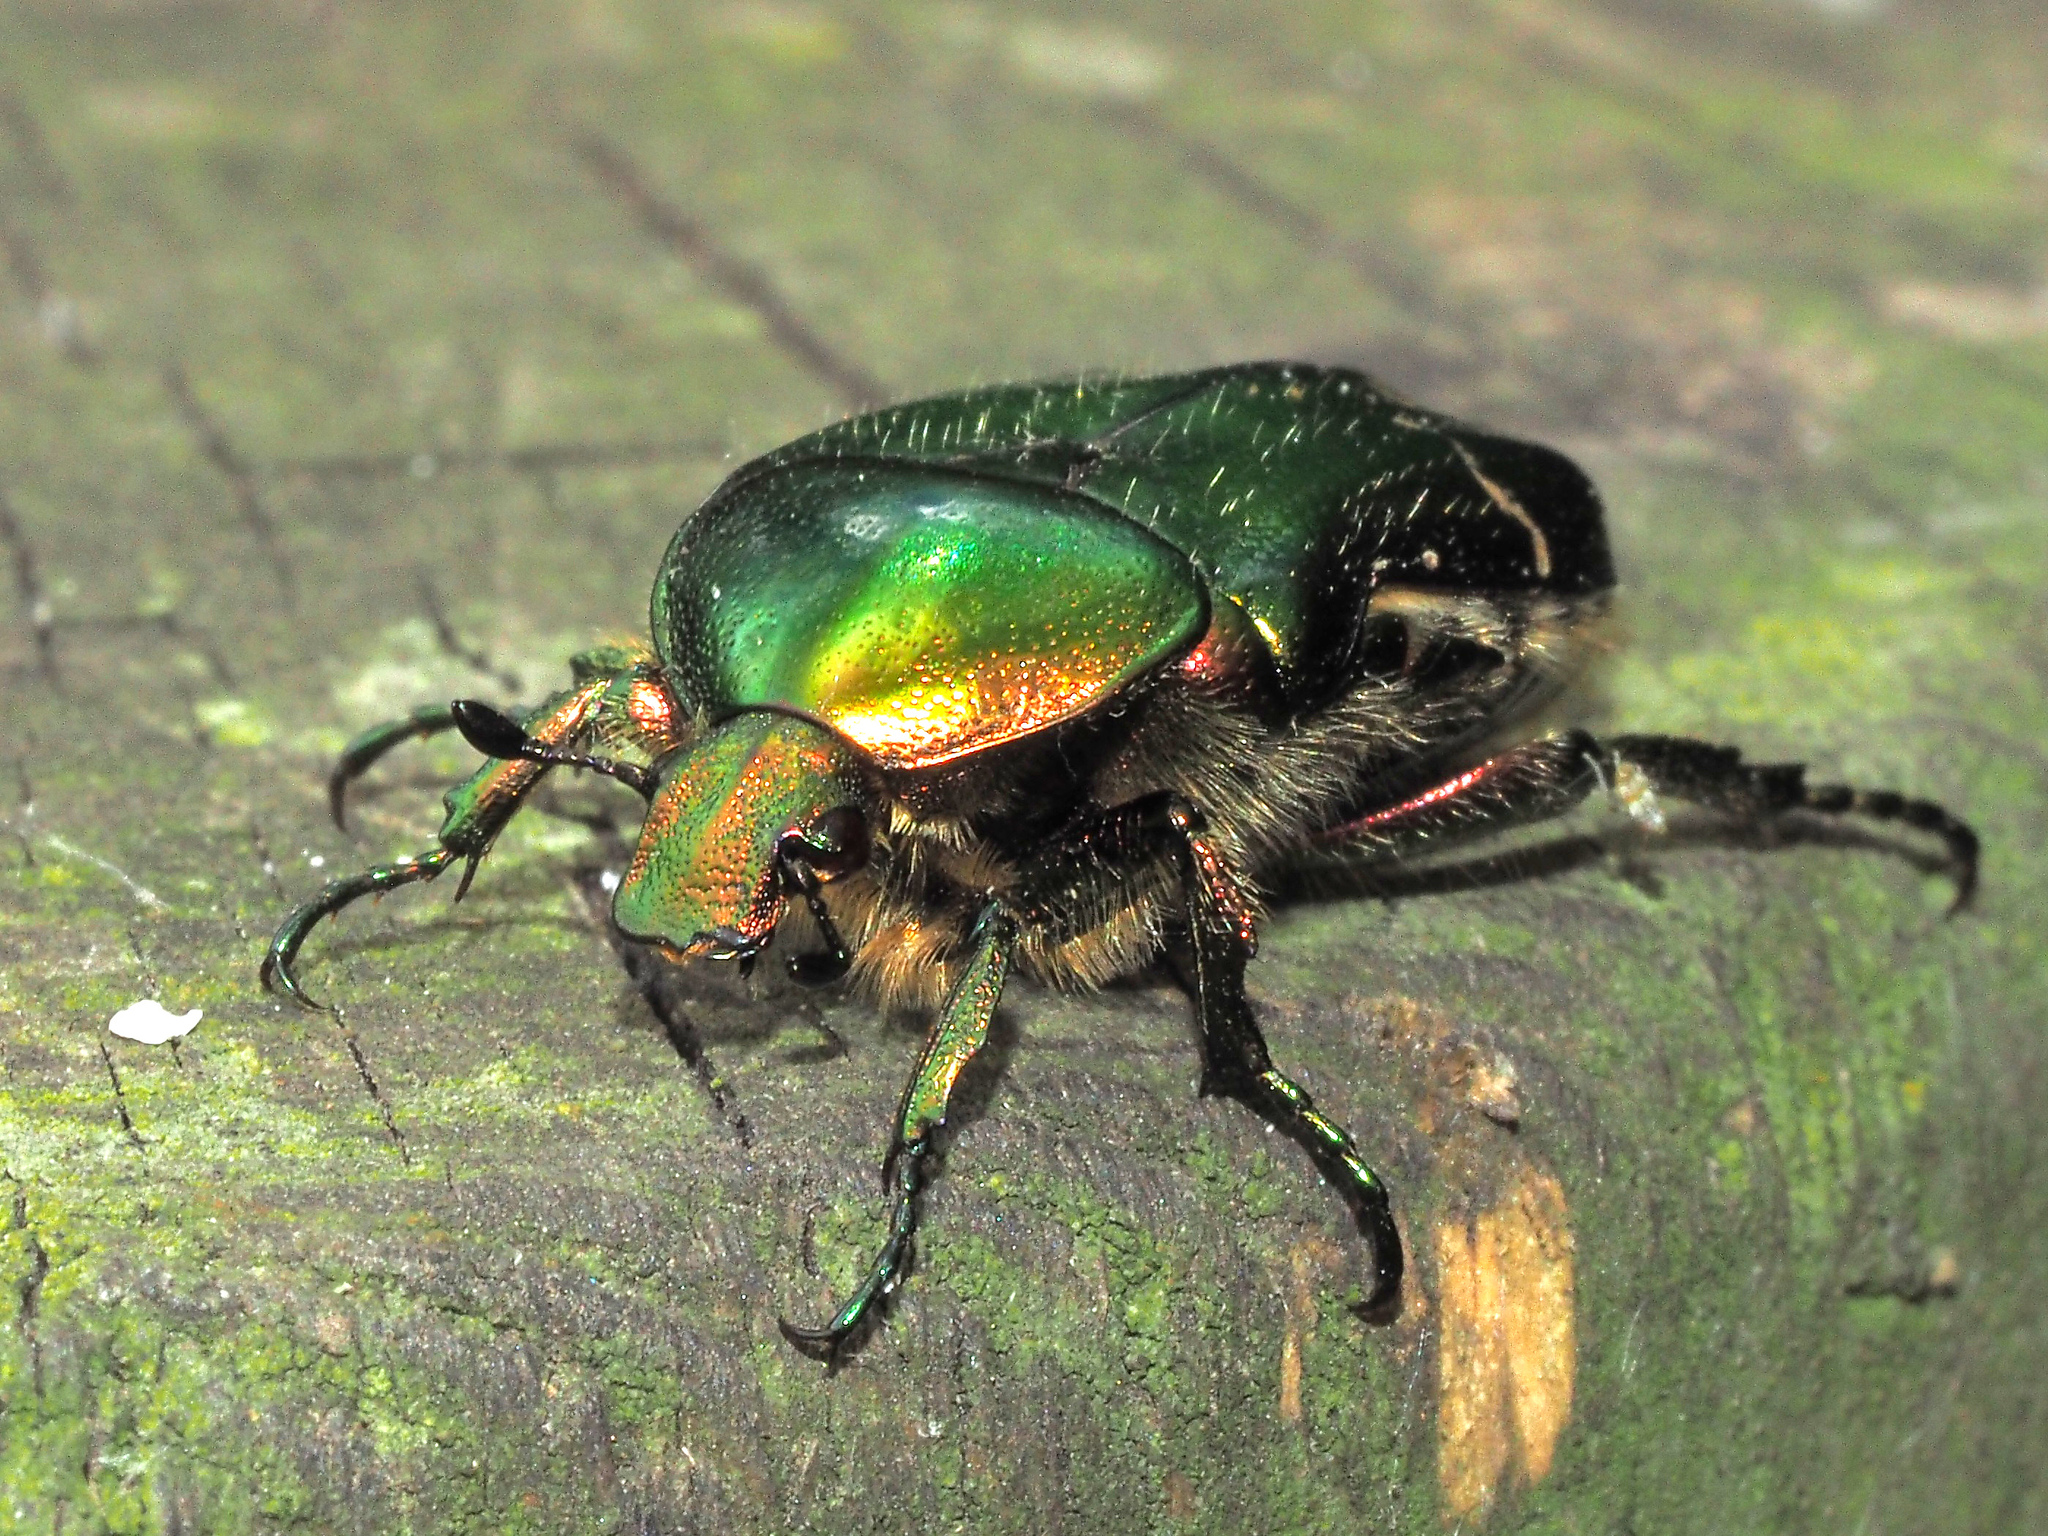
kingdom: Animalia
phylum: Arthropoda
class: Insecta
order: Coleoptera
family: Scarabaeidae
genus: Cetonia
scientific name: Cetonia aurata
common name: Rose chafer
